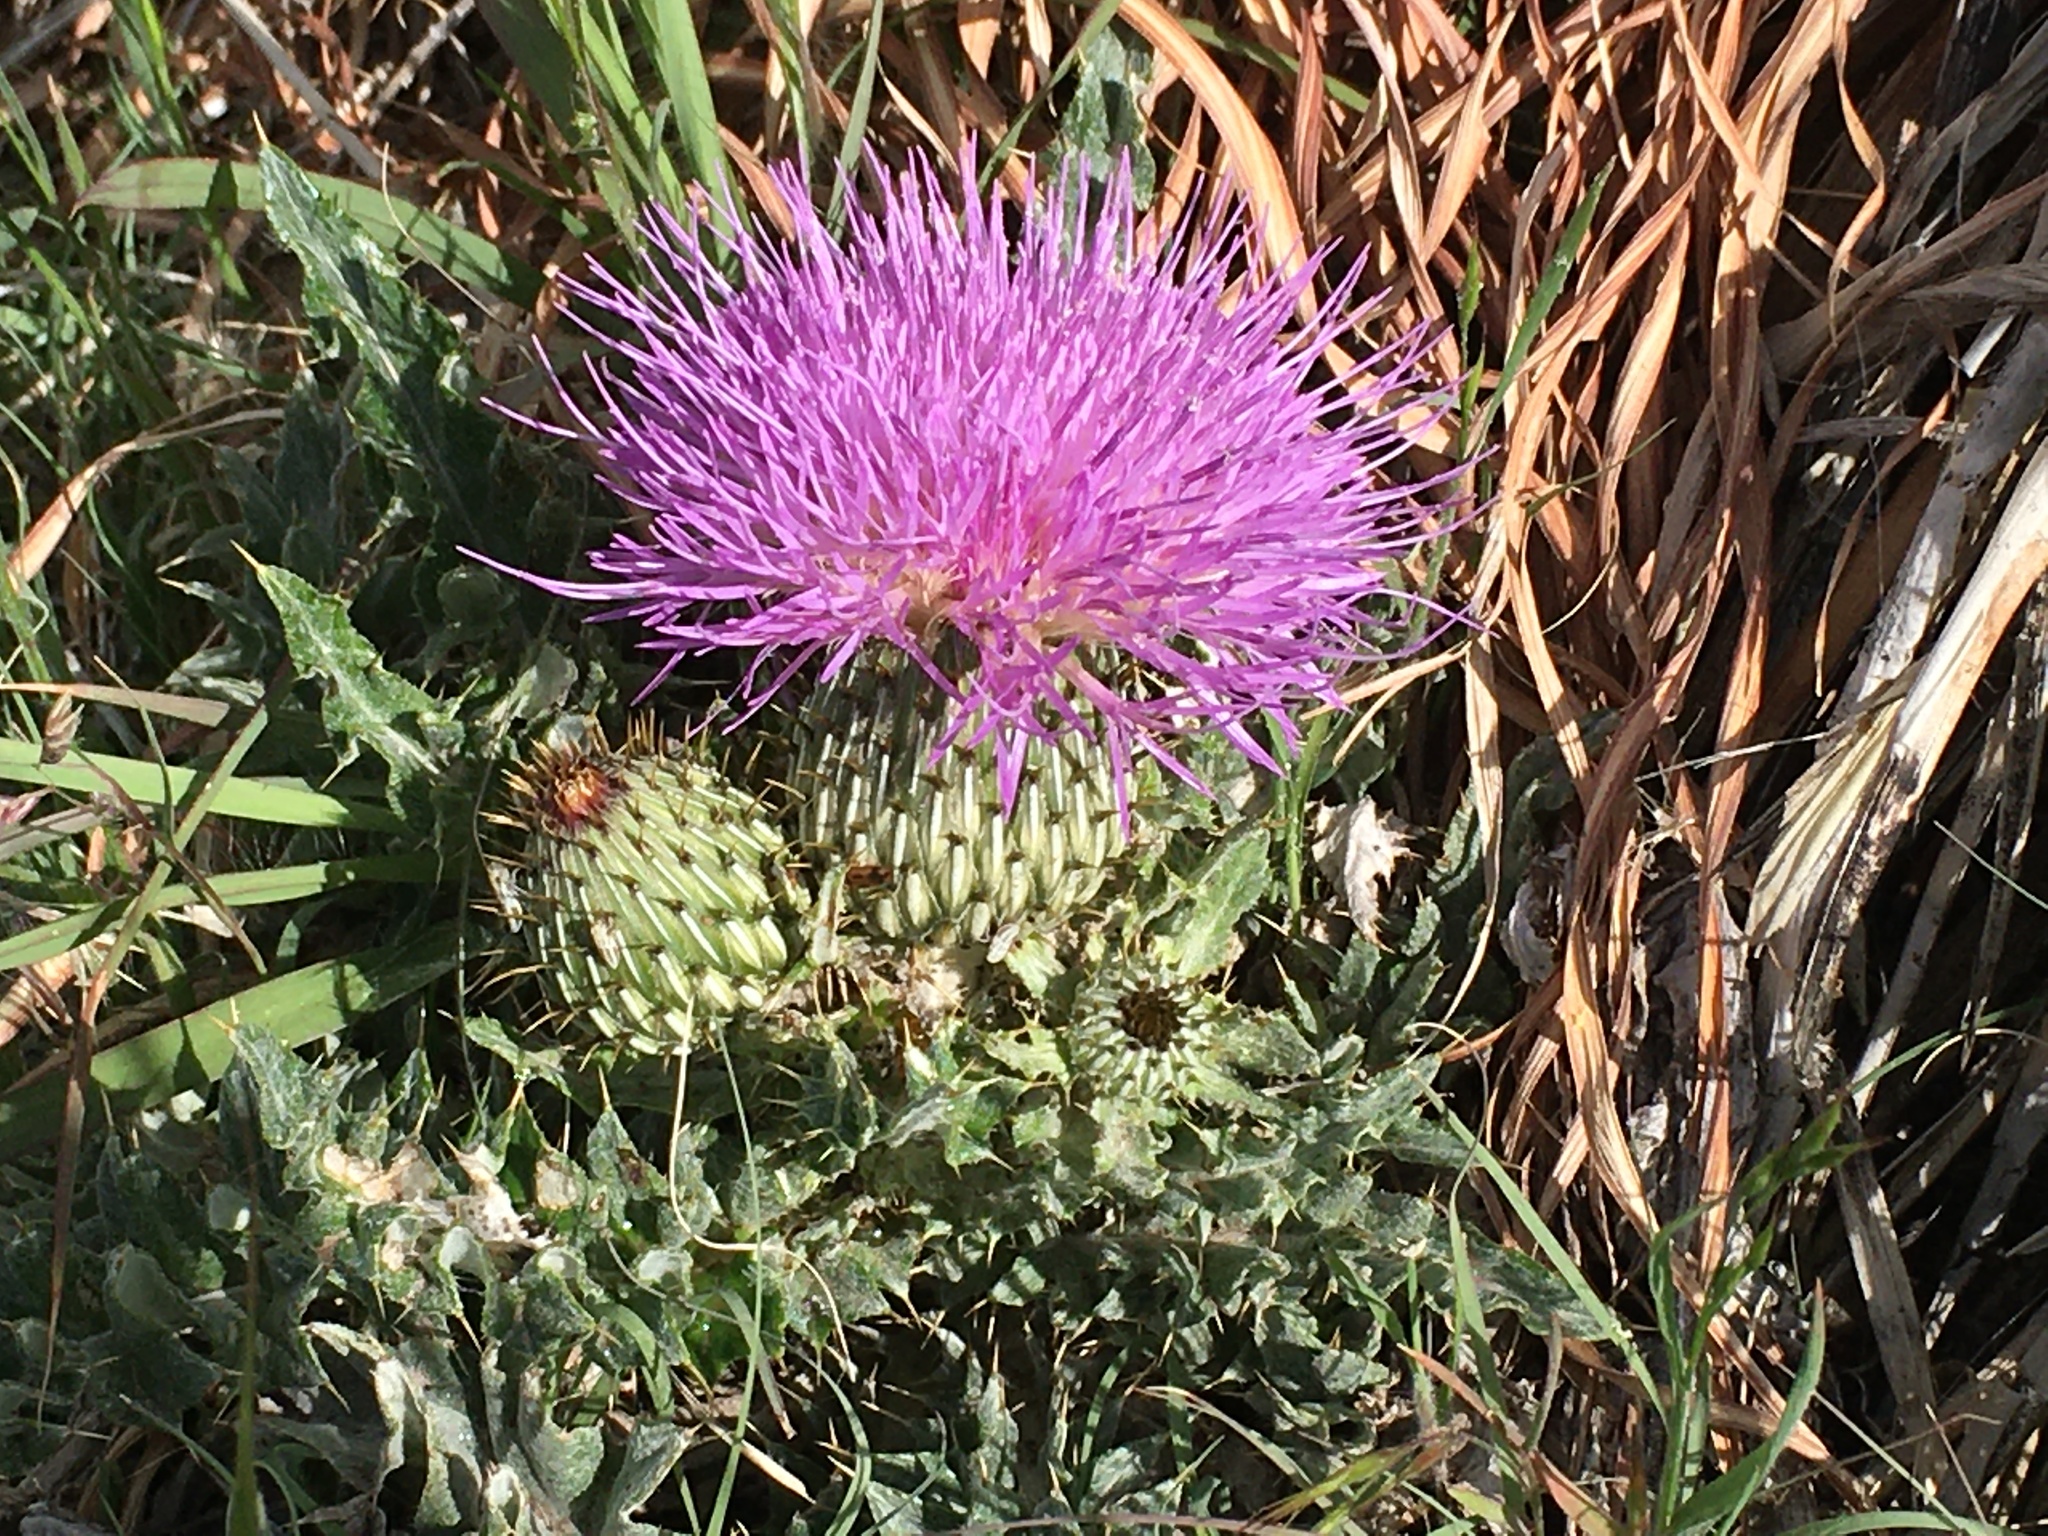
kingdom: Plantae
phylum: Tracheophyta
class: Magnoliopsida
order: Asterales
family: Asteraceae
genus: Cirsium
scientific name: Cirsium undulatum
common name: Pasture thistle
